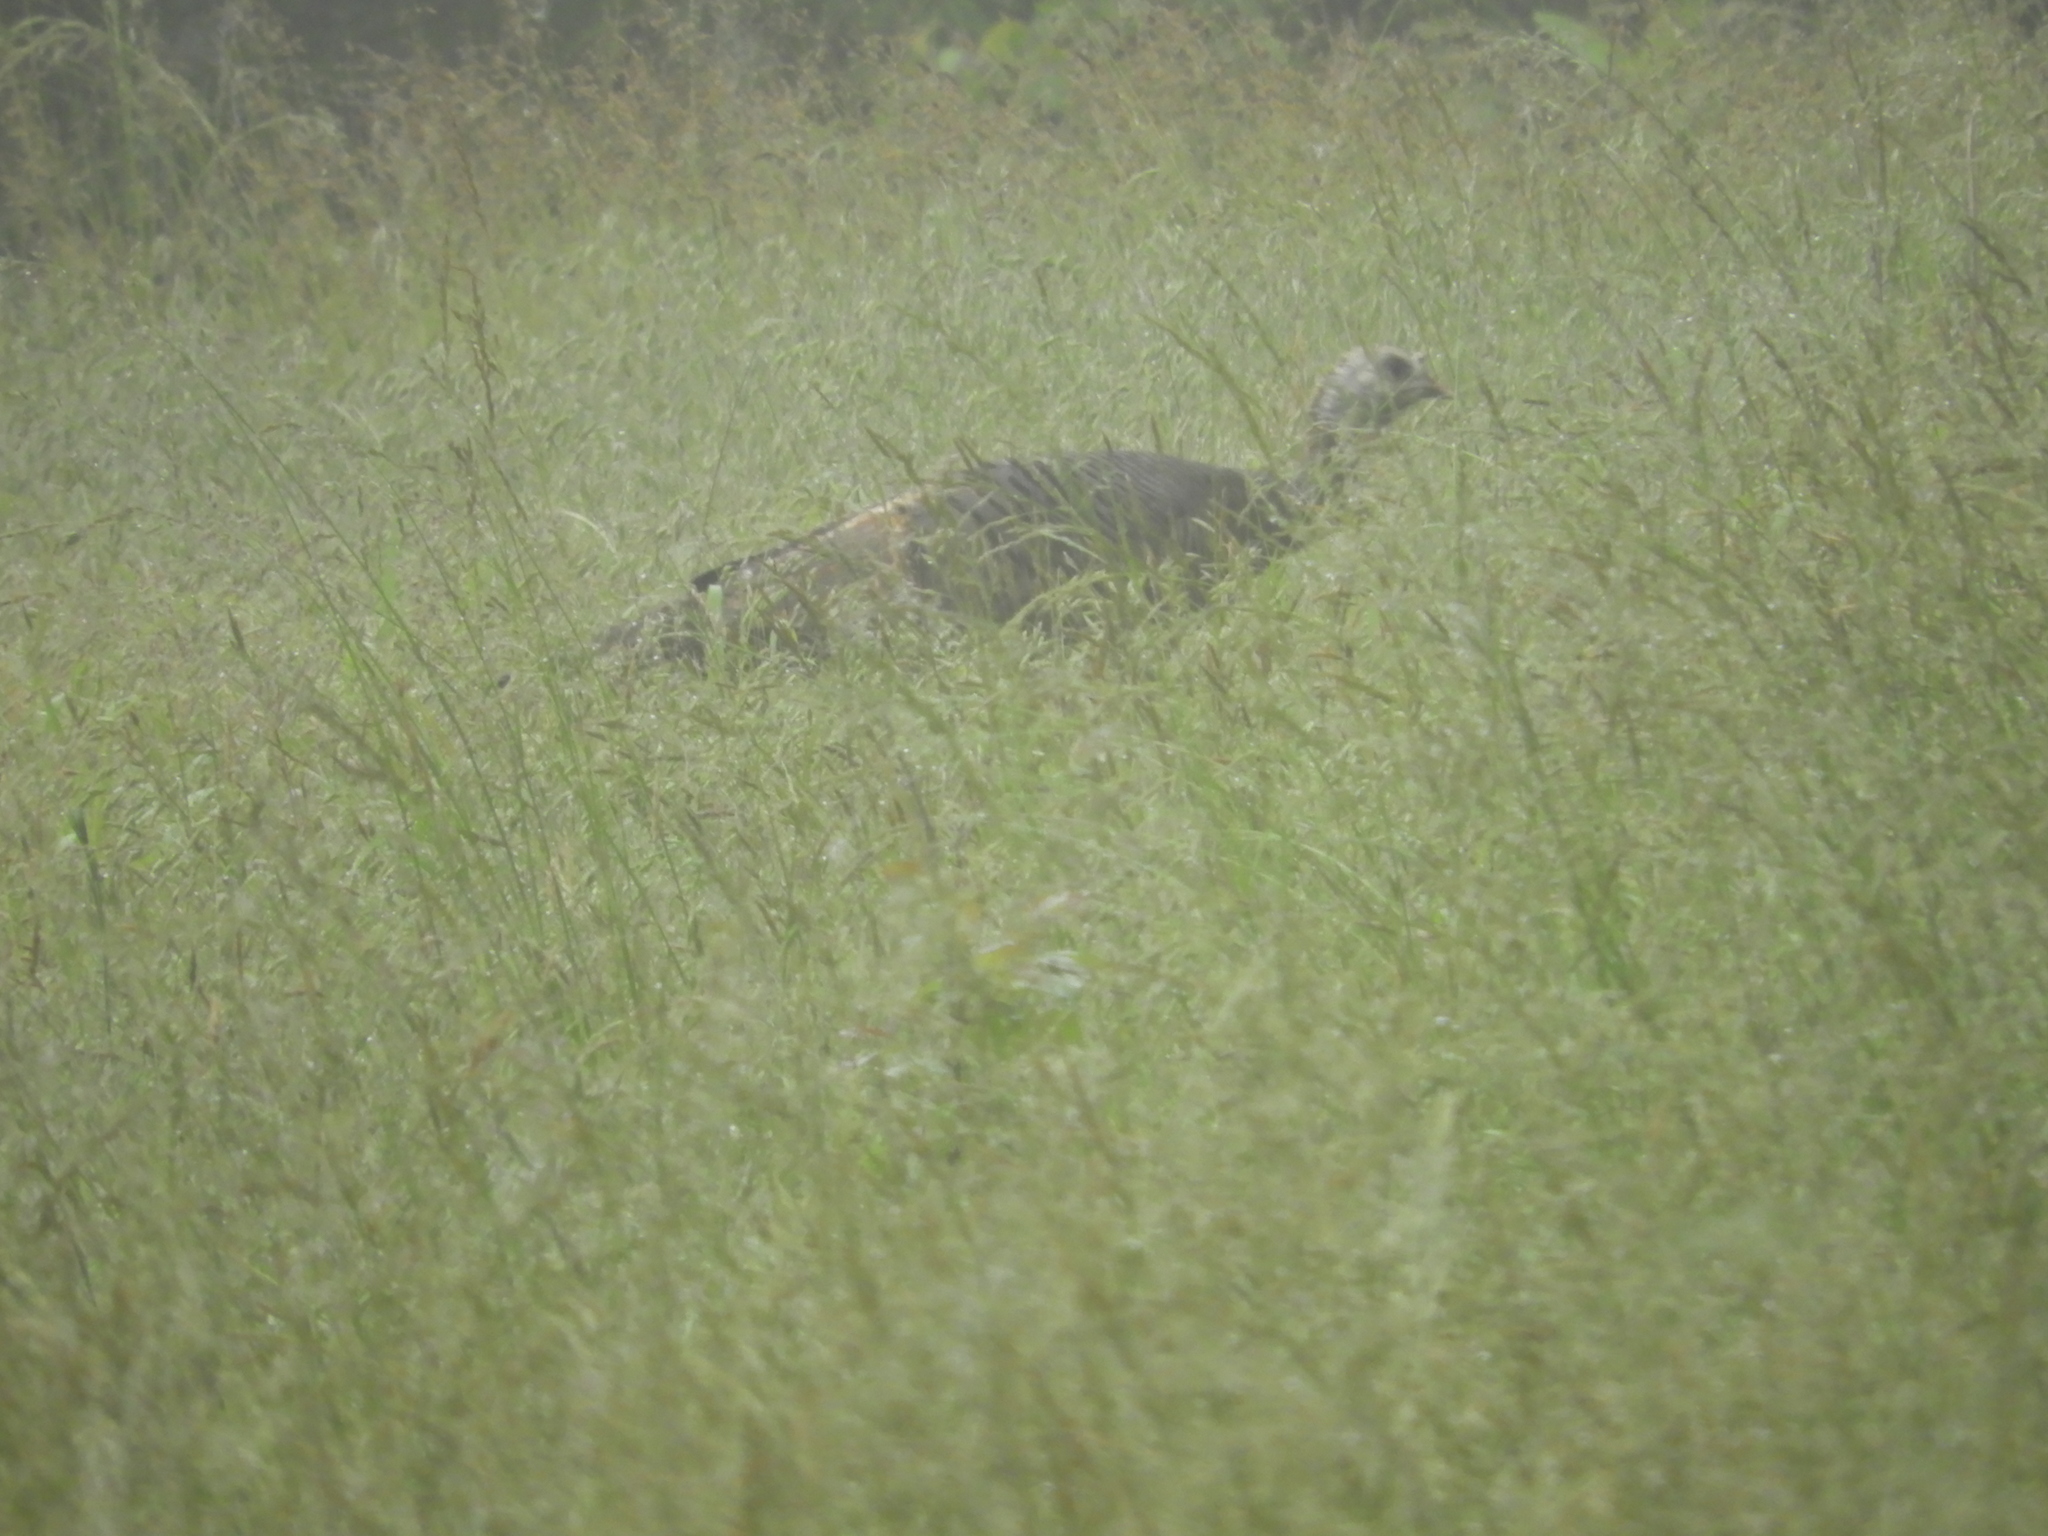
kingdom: Animalia
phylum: Chordata
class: Aves
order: Galliformes
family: Phasianidae
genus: Meleagris
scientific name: Meleagris gallopavo
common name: Wild turkey
